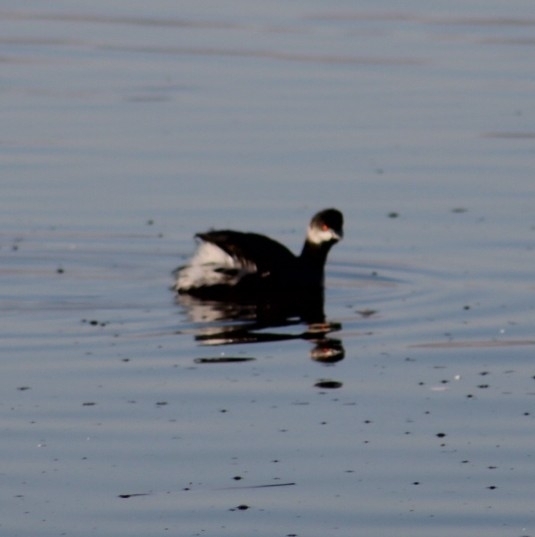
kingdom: Animalia
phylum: Chordata
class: Aves
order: Podicipediformes
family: Podicipedidae
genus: Podiceps
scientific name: Podiceps nigricollis
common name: Black-necked grebe
